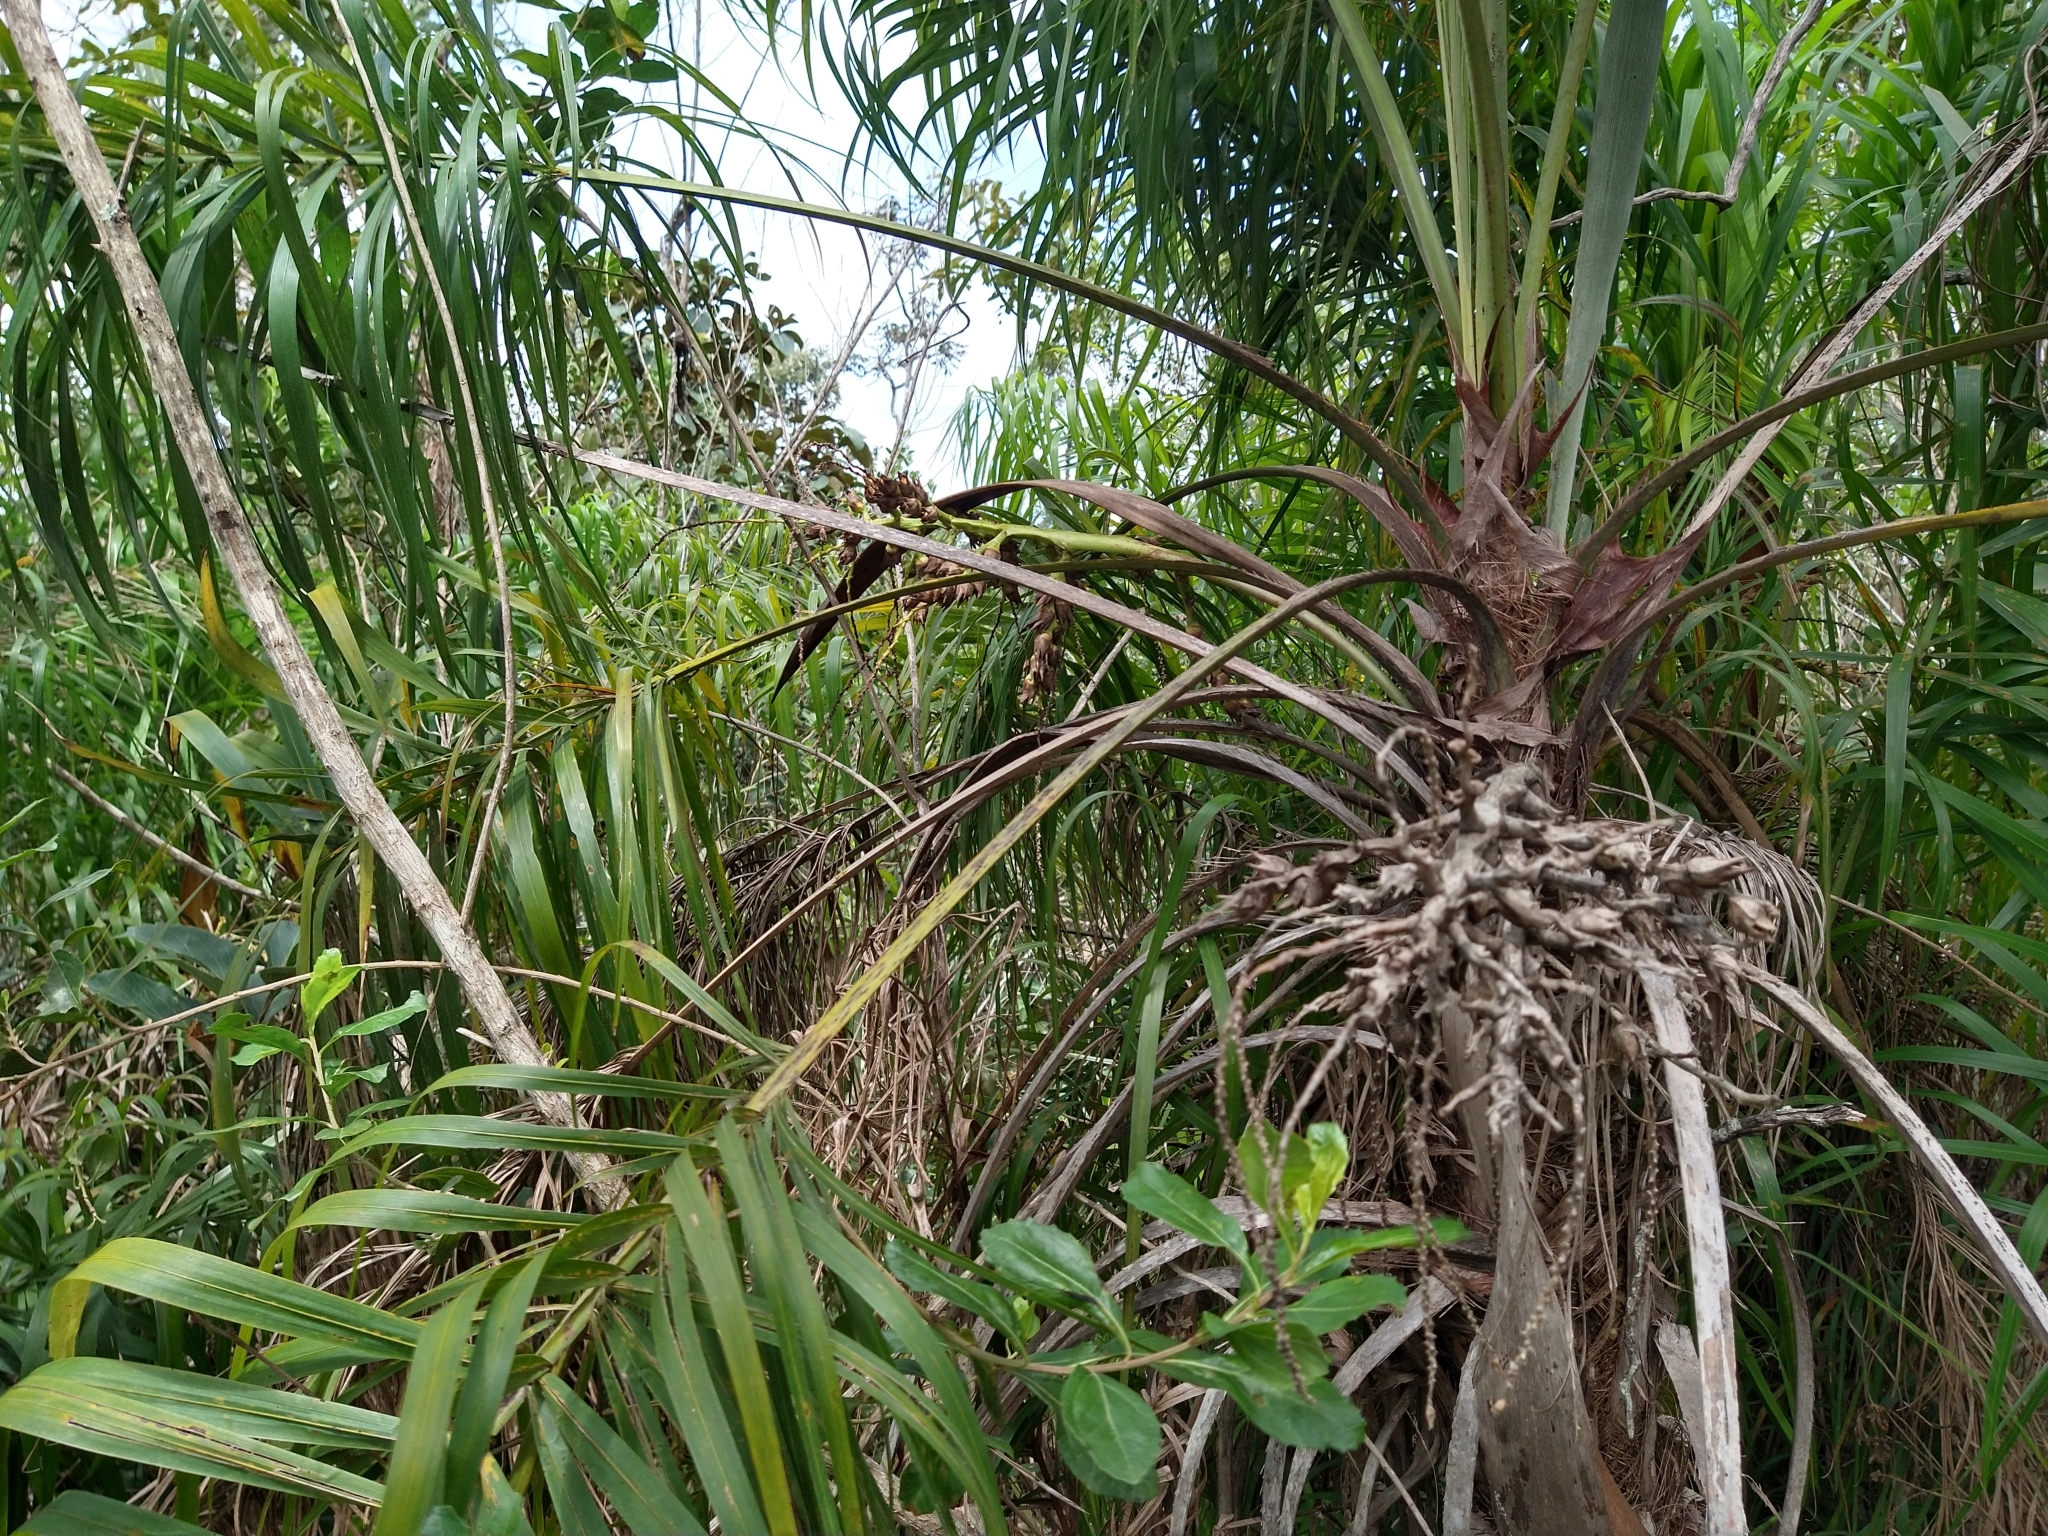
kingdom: Plantae
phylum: Tracheophyta
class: Liliopsida
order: Arecales
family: Arecaceae
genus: Syagrus
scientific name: Syagrus flexuosa
